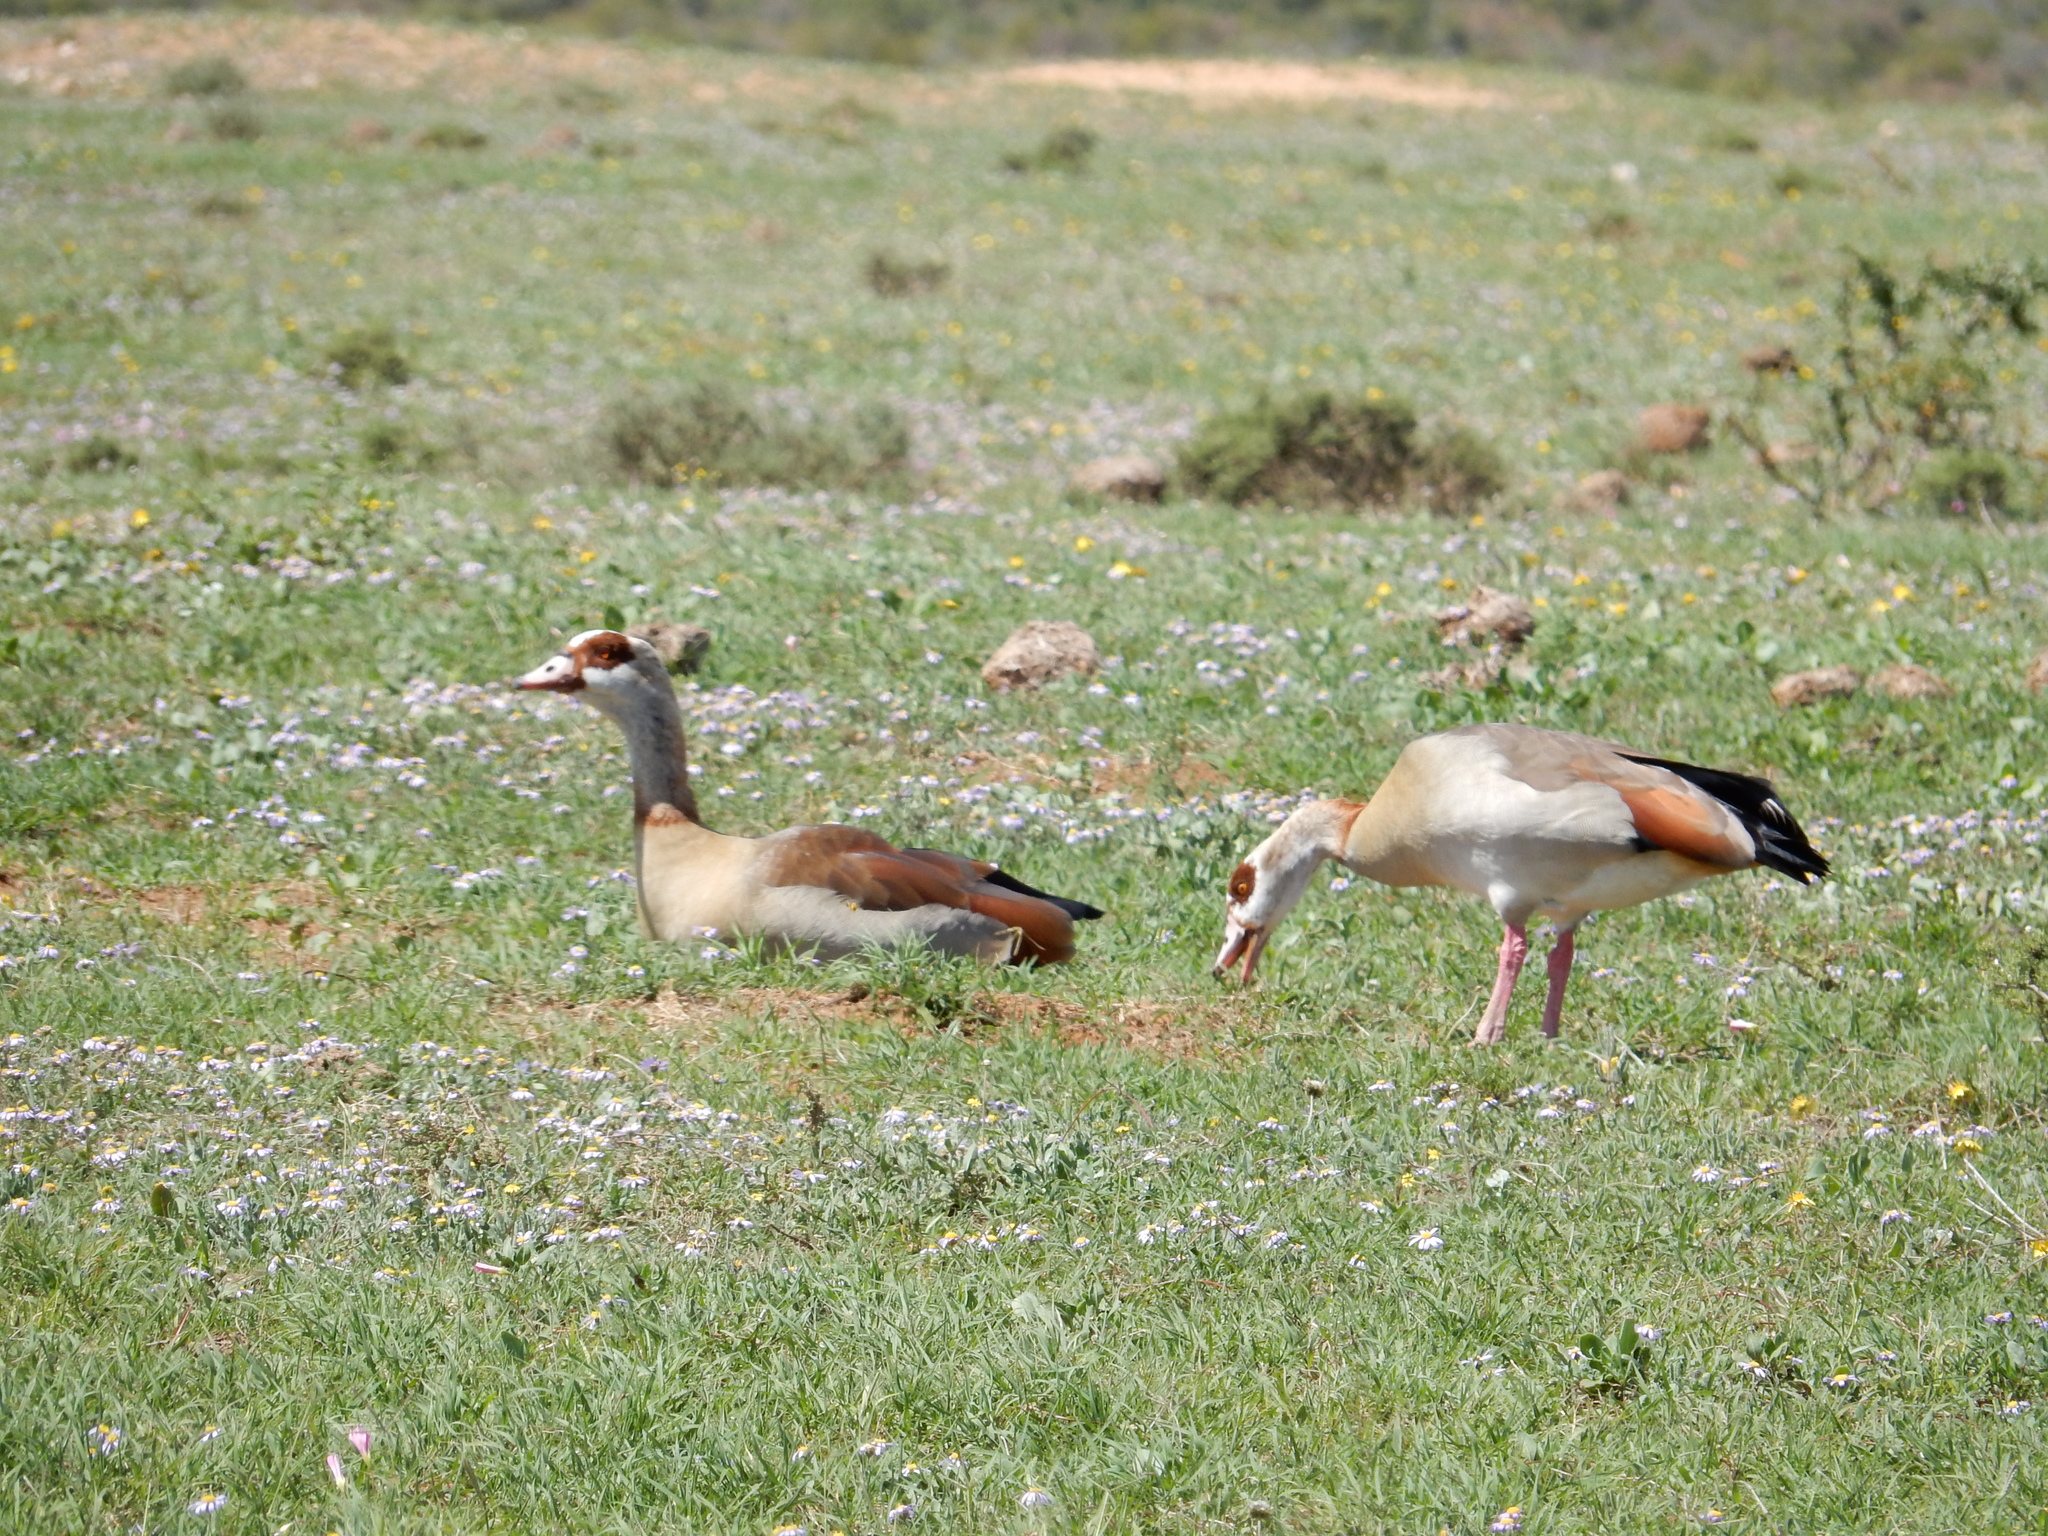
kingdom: Animalia
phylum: Chordata
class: Aves
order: Anseriformes
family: Anatidae
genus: Alopochen
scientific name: Alopochen aegyptiaca
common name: Egyptian goose
